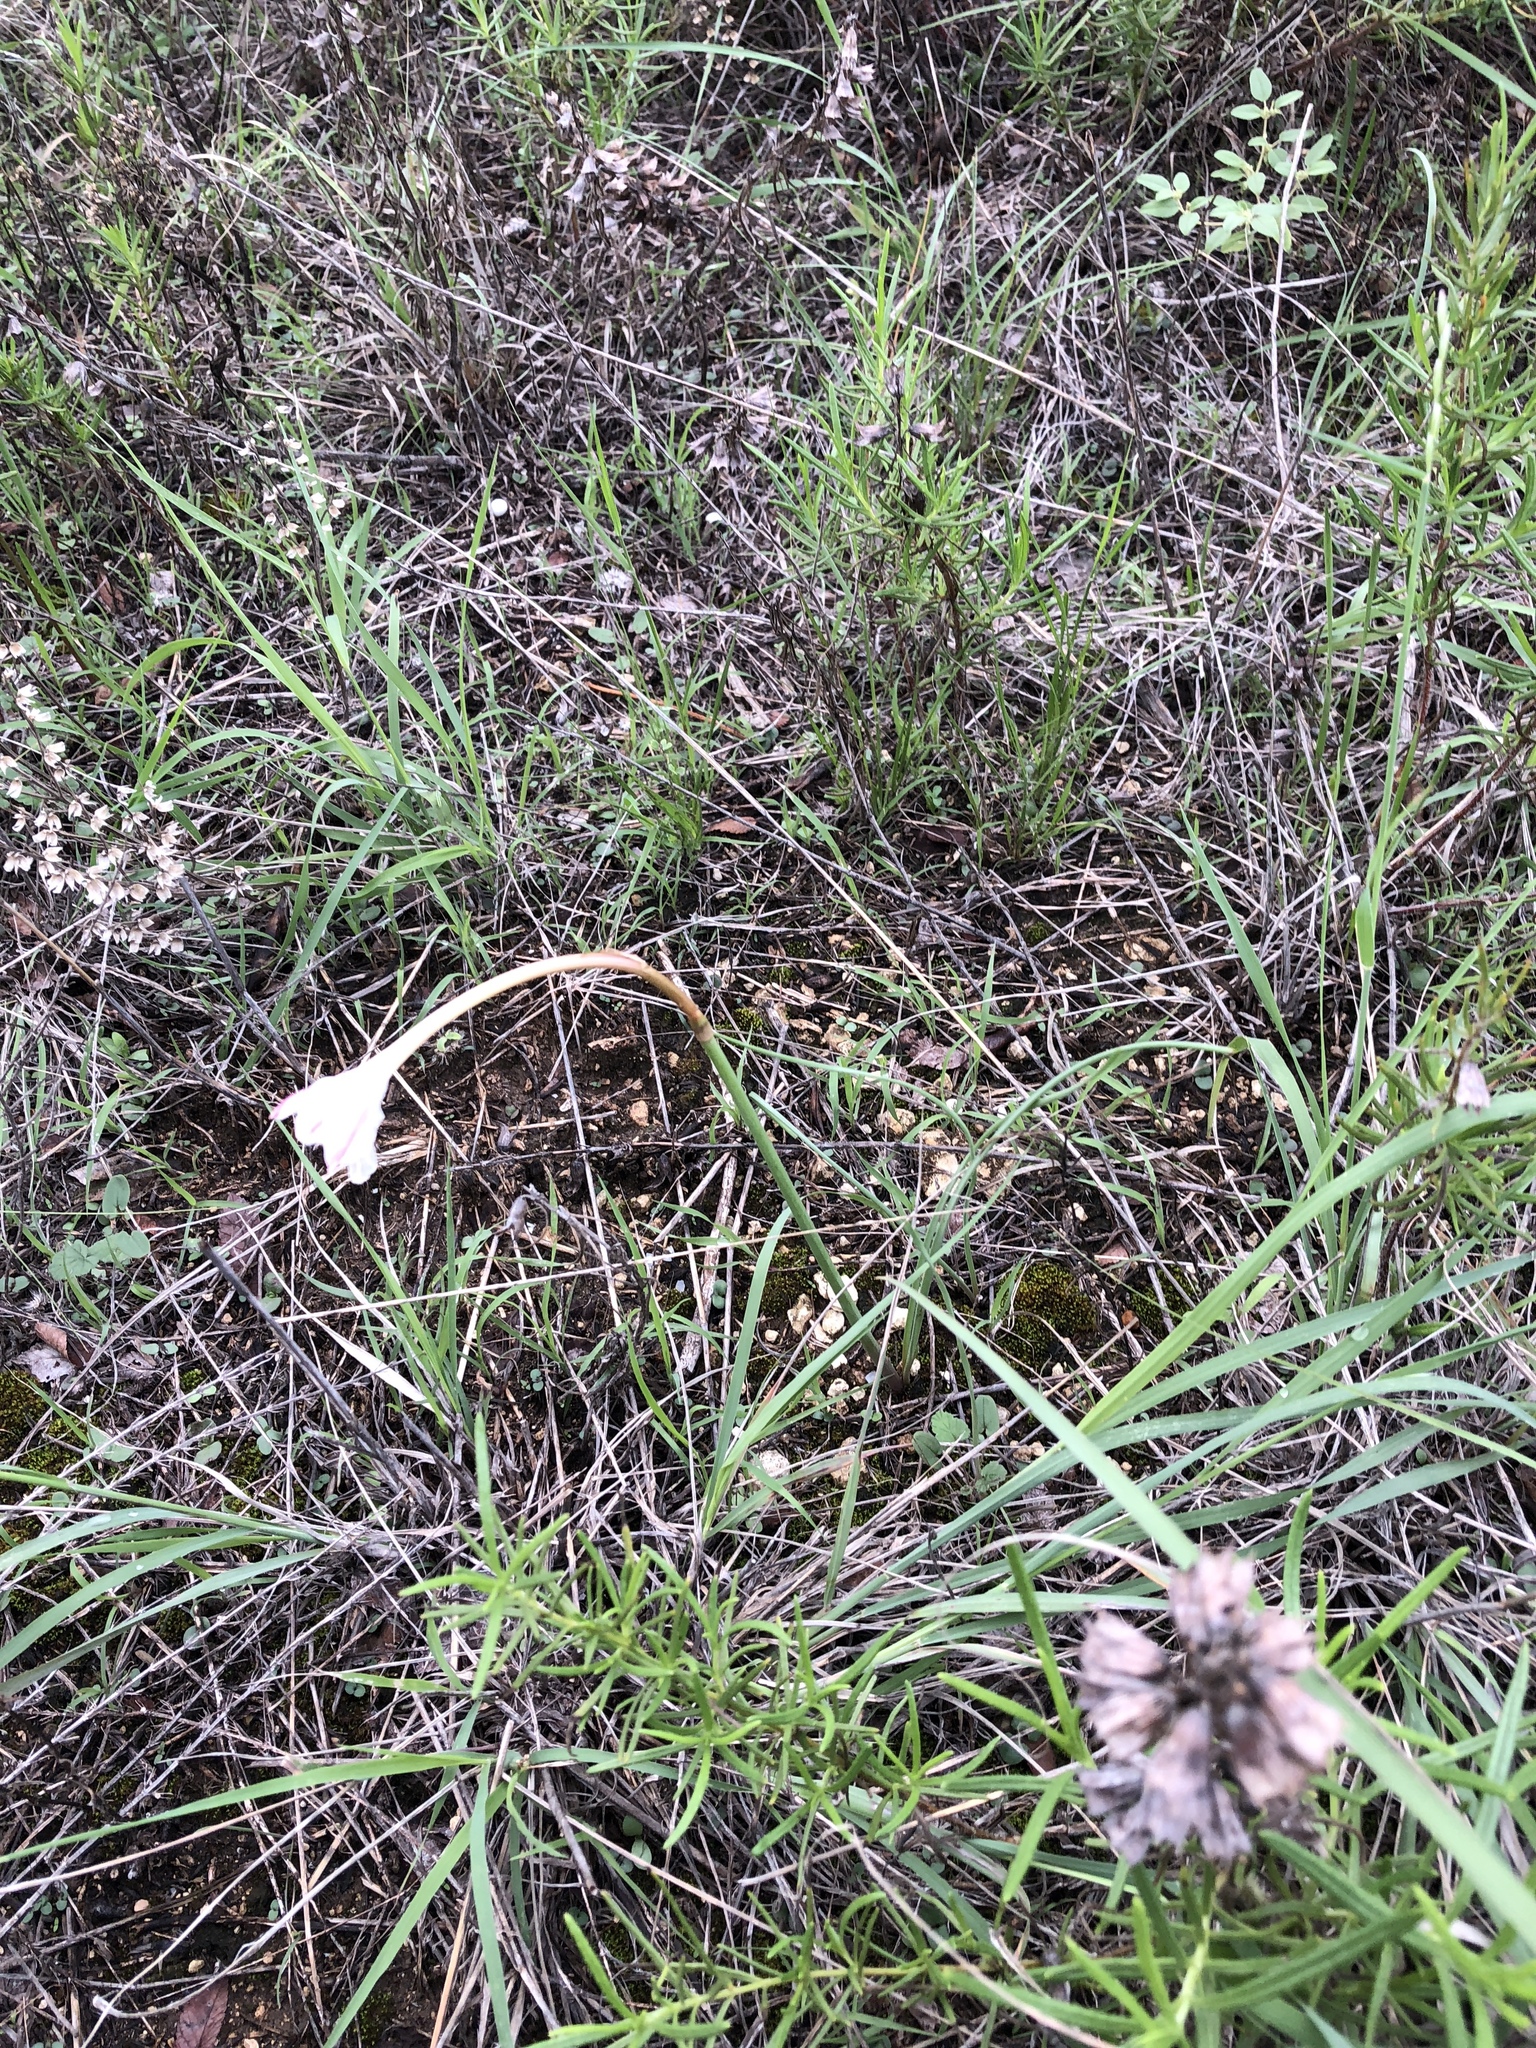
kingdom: Plantae
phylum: Tracheophyta
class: Liliopsida
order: Asparagales
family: Amaryllidaceae
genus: Zephyranthes
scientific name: Zephyranthes chlorosolen
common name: Evening rain-lily
